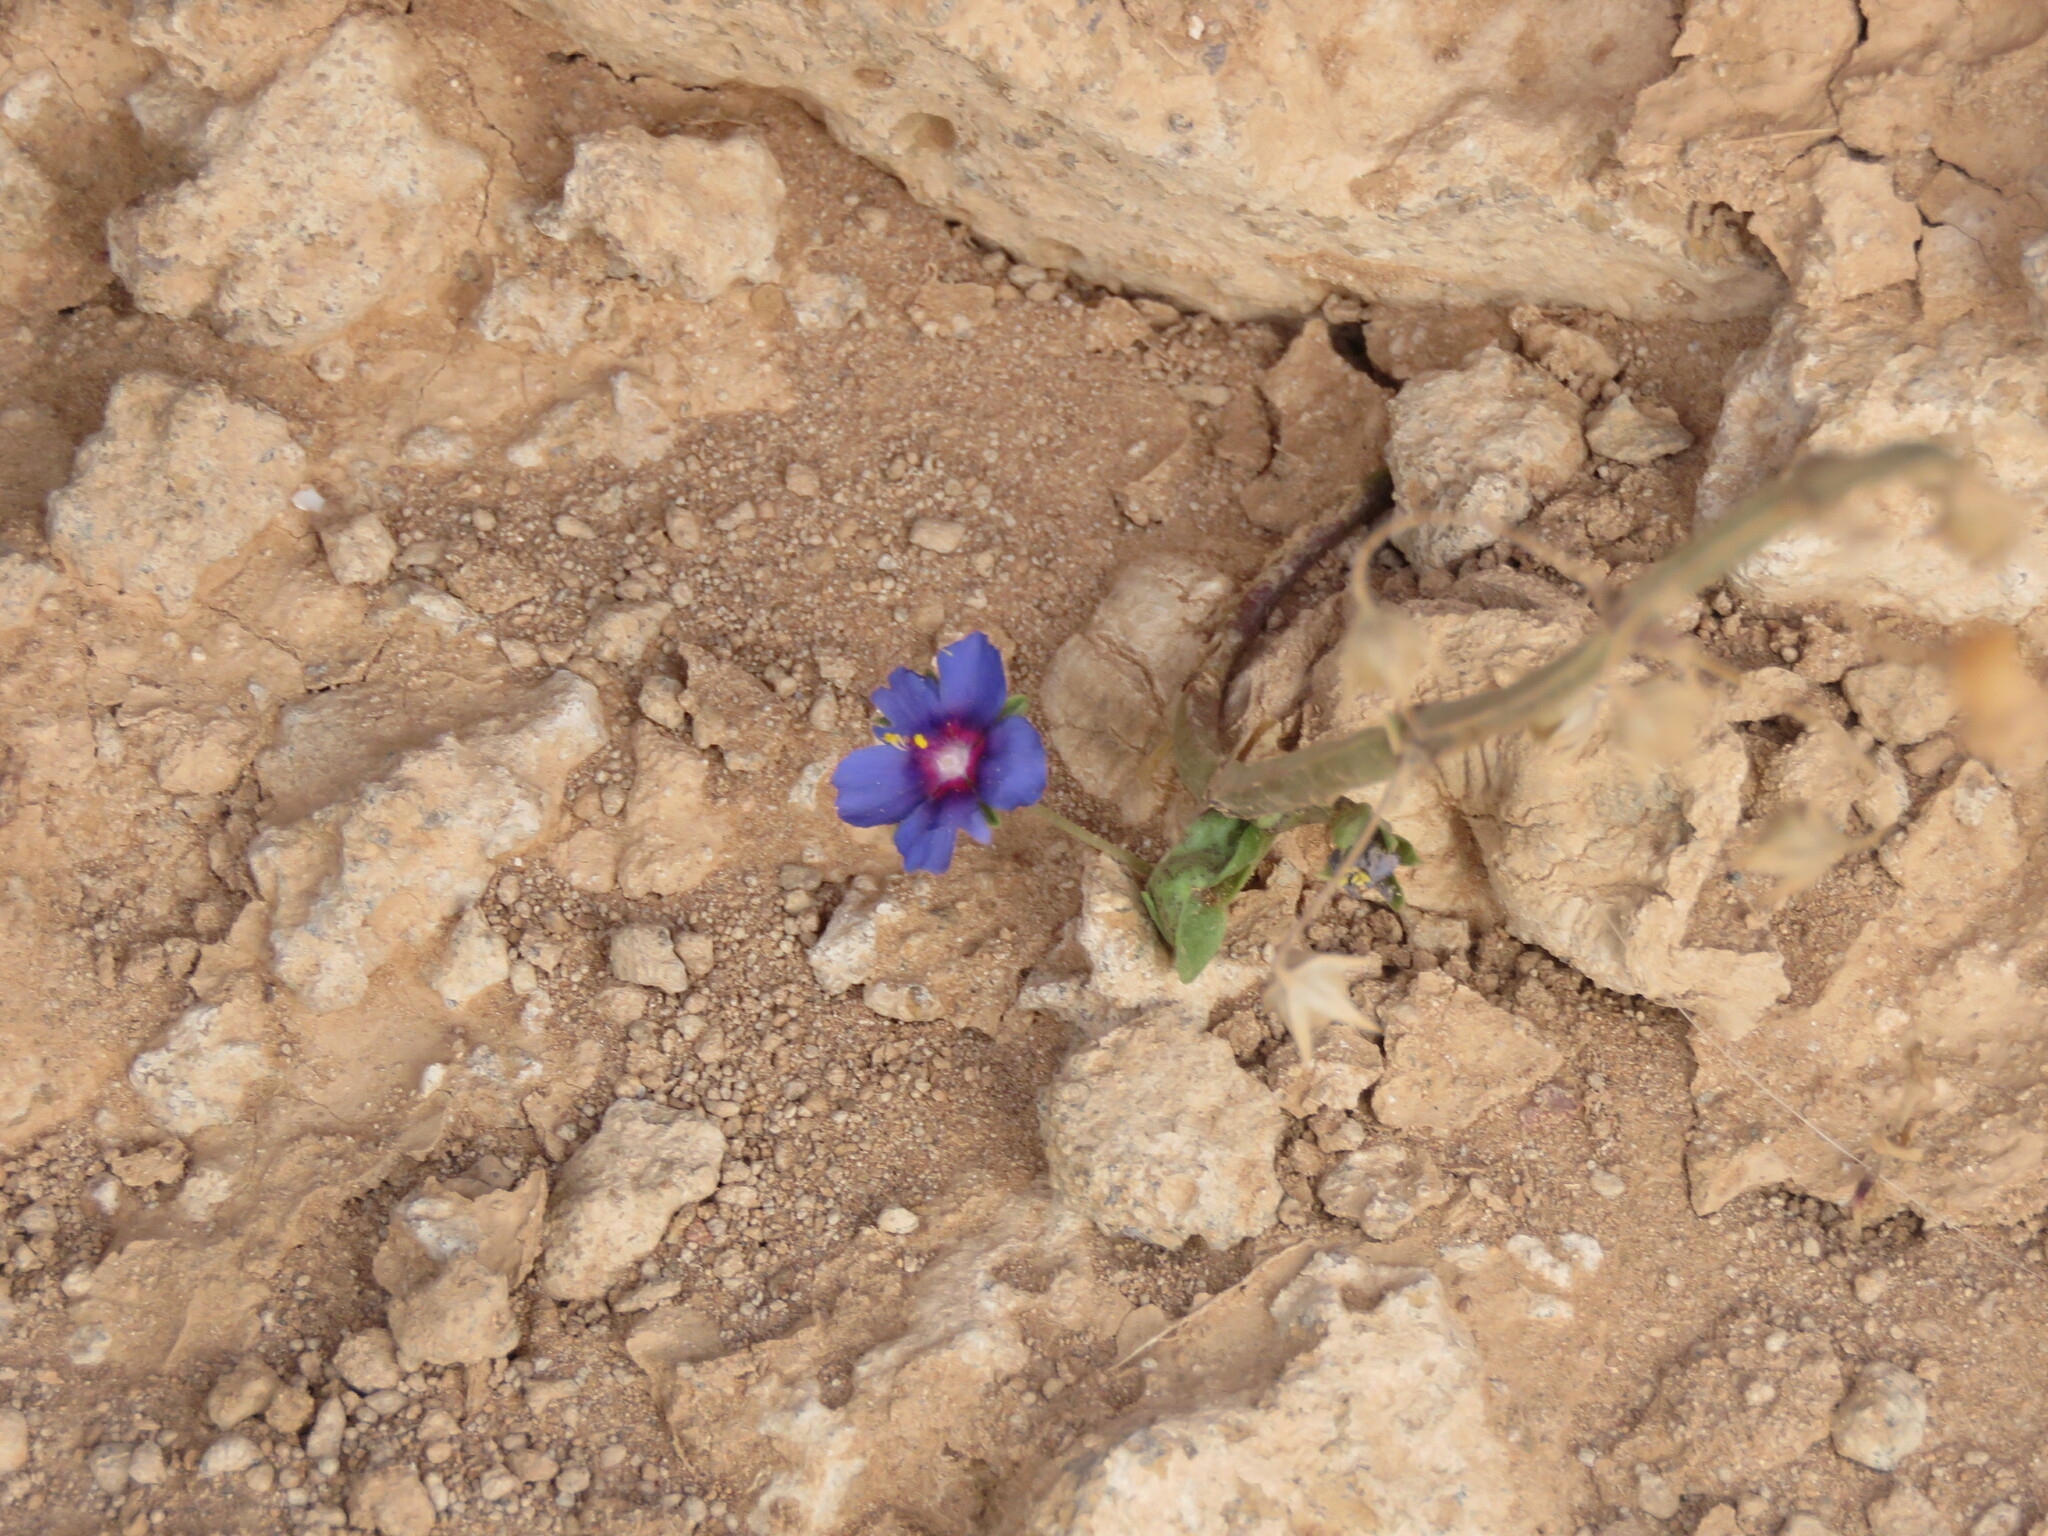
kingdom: Plantae
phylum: Tracheophyta
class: Magnoliopsida
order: Ericales
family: Primulaceae
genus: Lysimachia
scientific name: Lysimachia loeflingii
